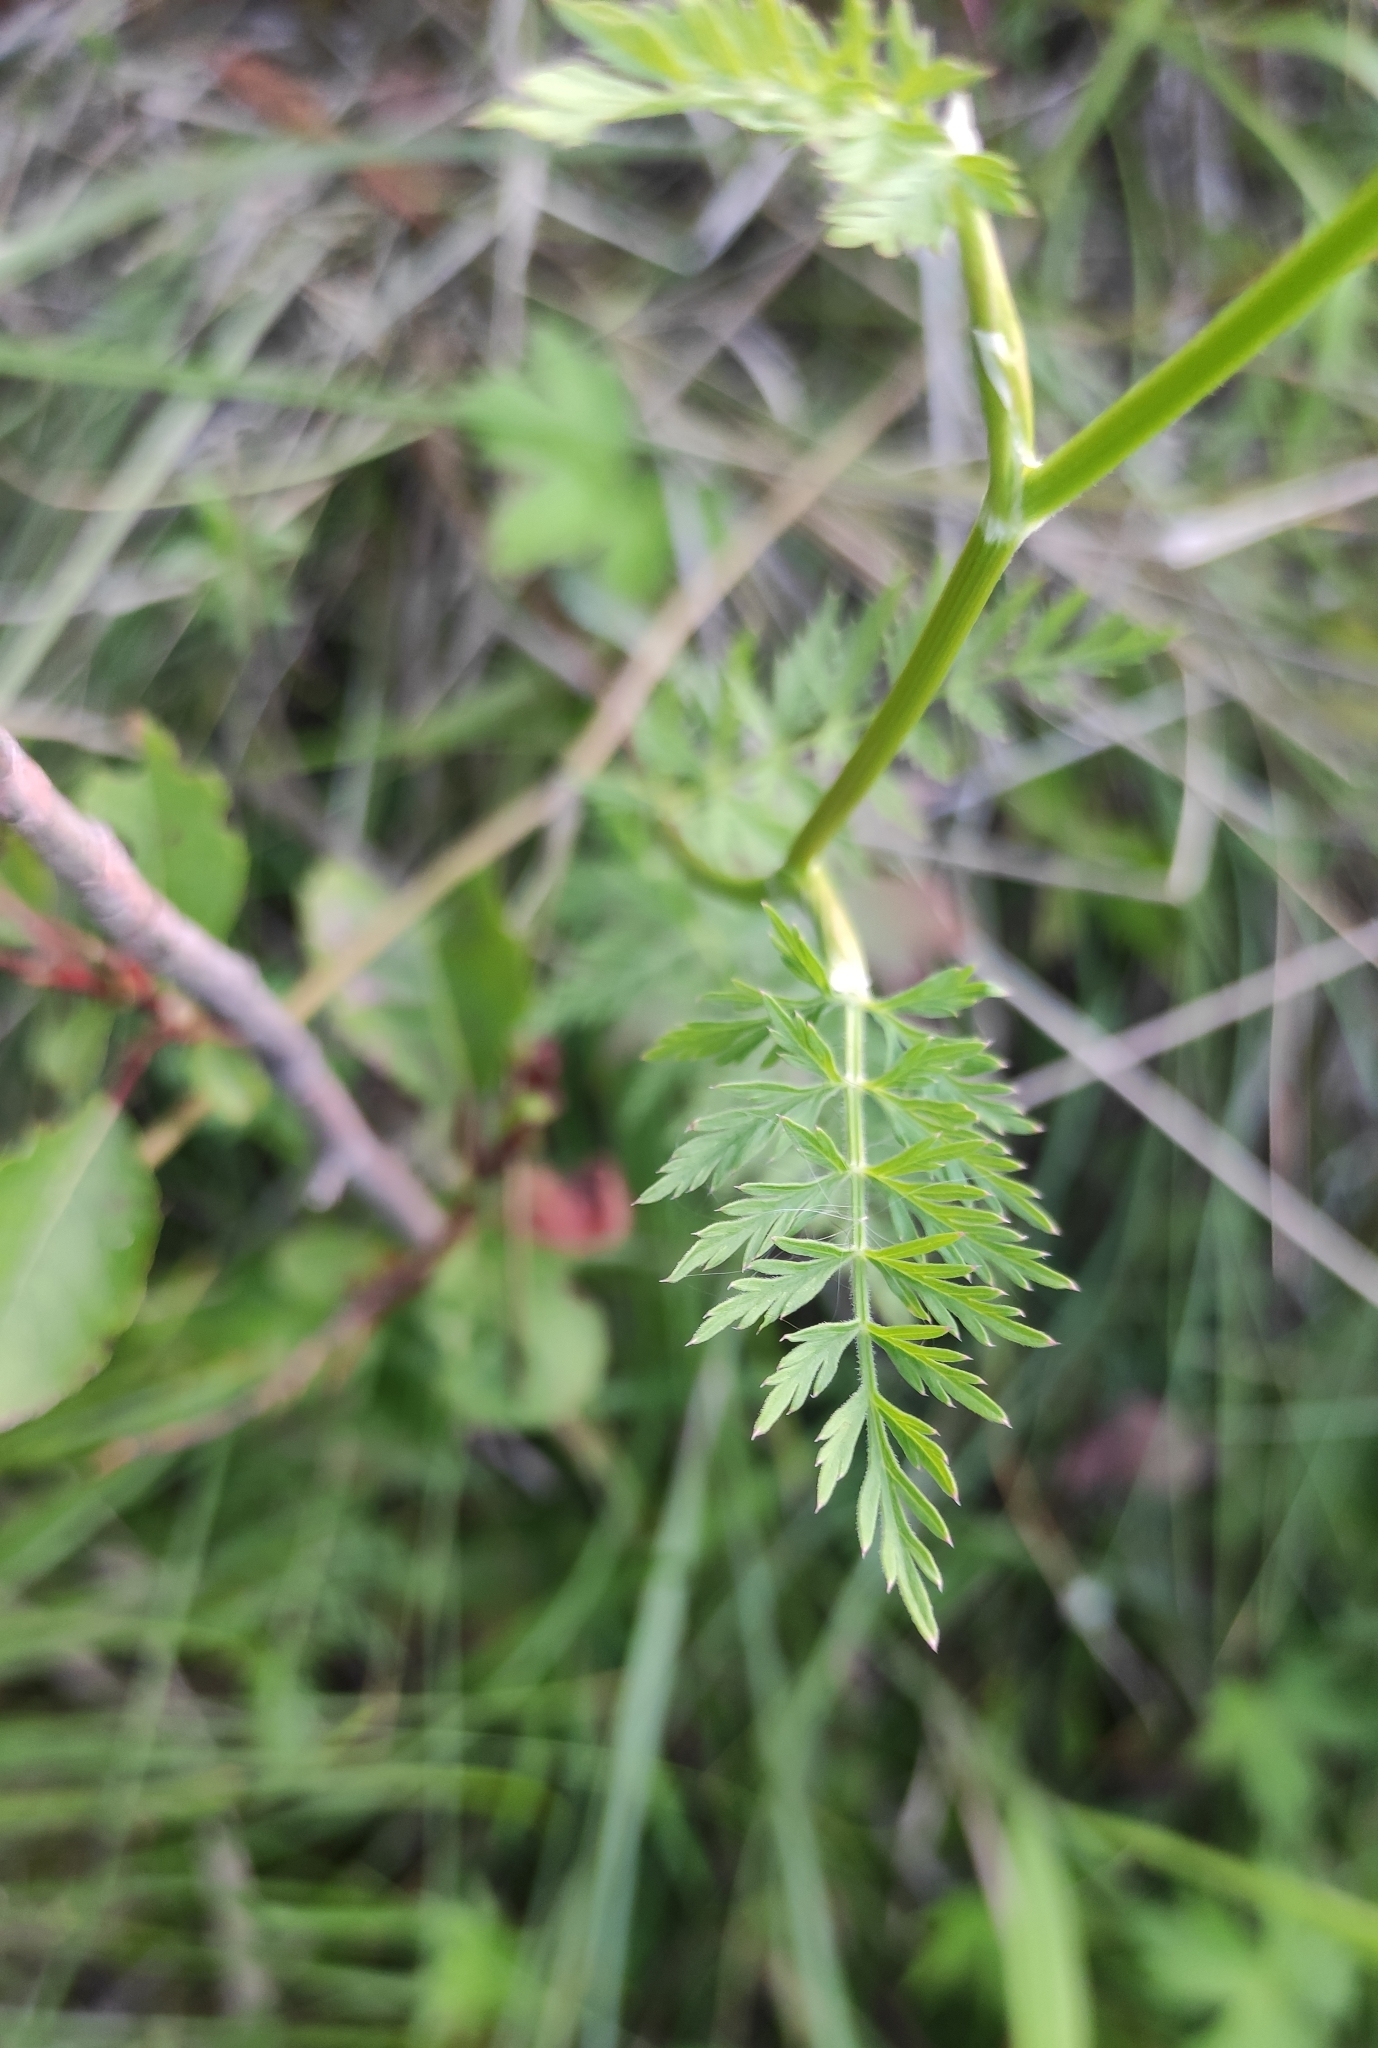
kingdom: Plantae
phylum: Tracheophyta
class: Magnoliopsida
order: Apiales
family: Apiaceae
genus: Seseli
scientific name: Seseli condensatum
